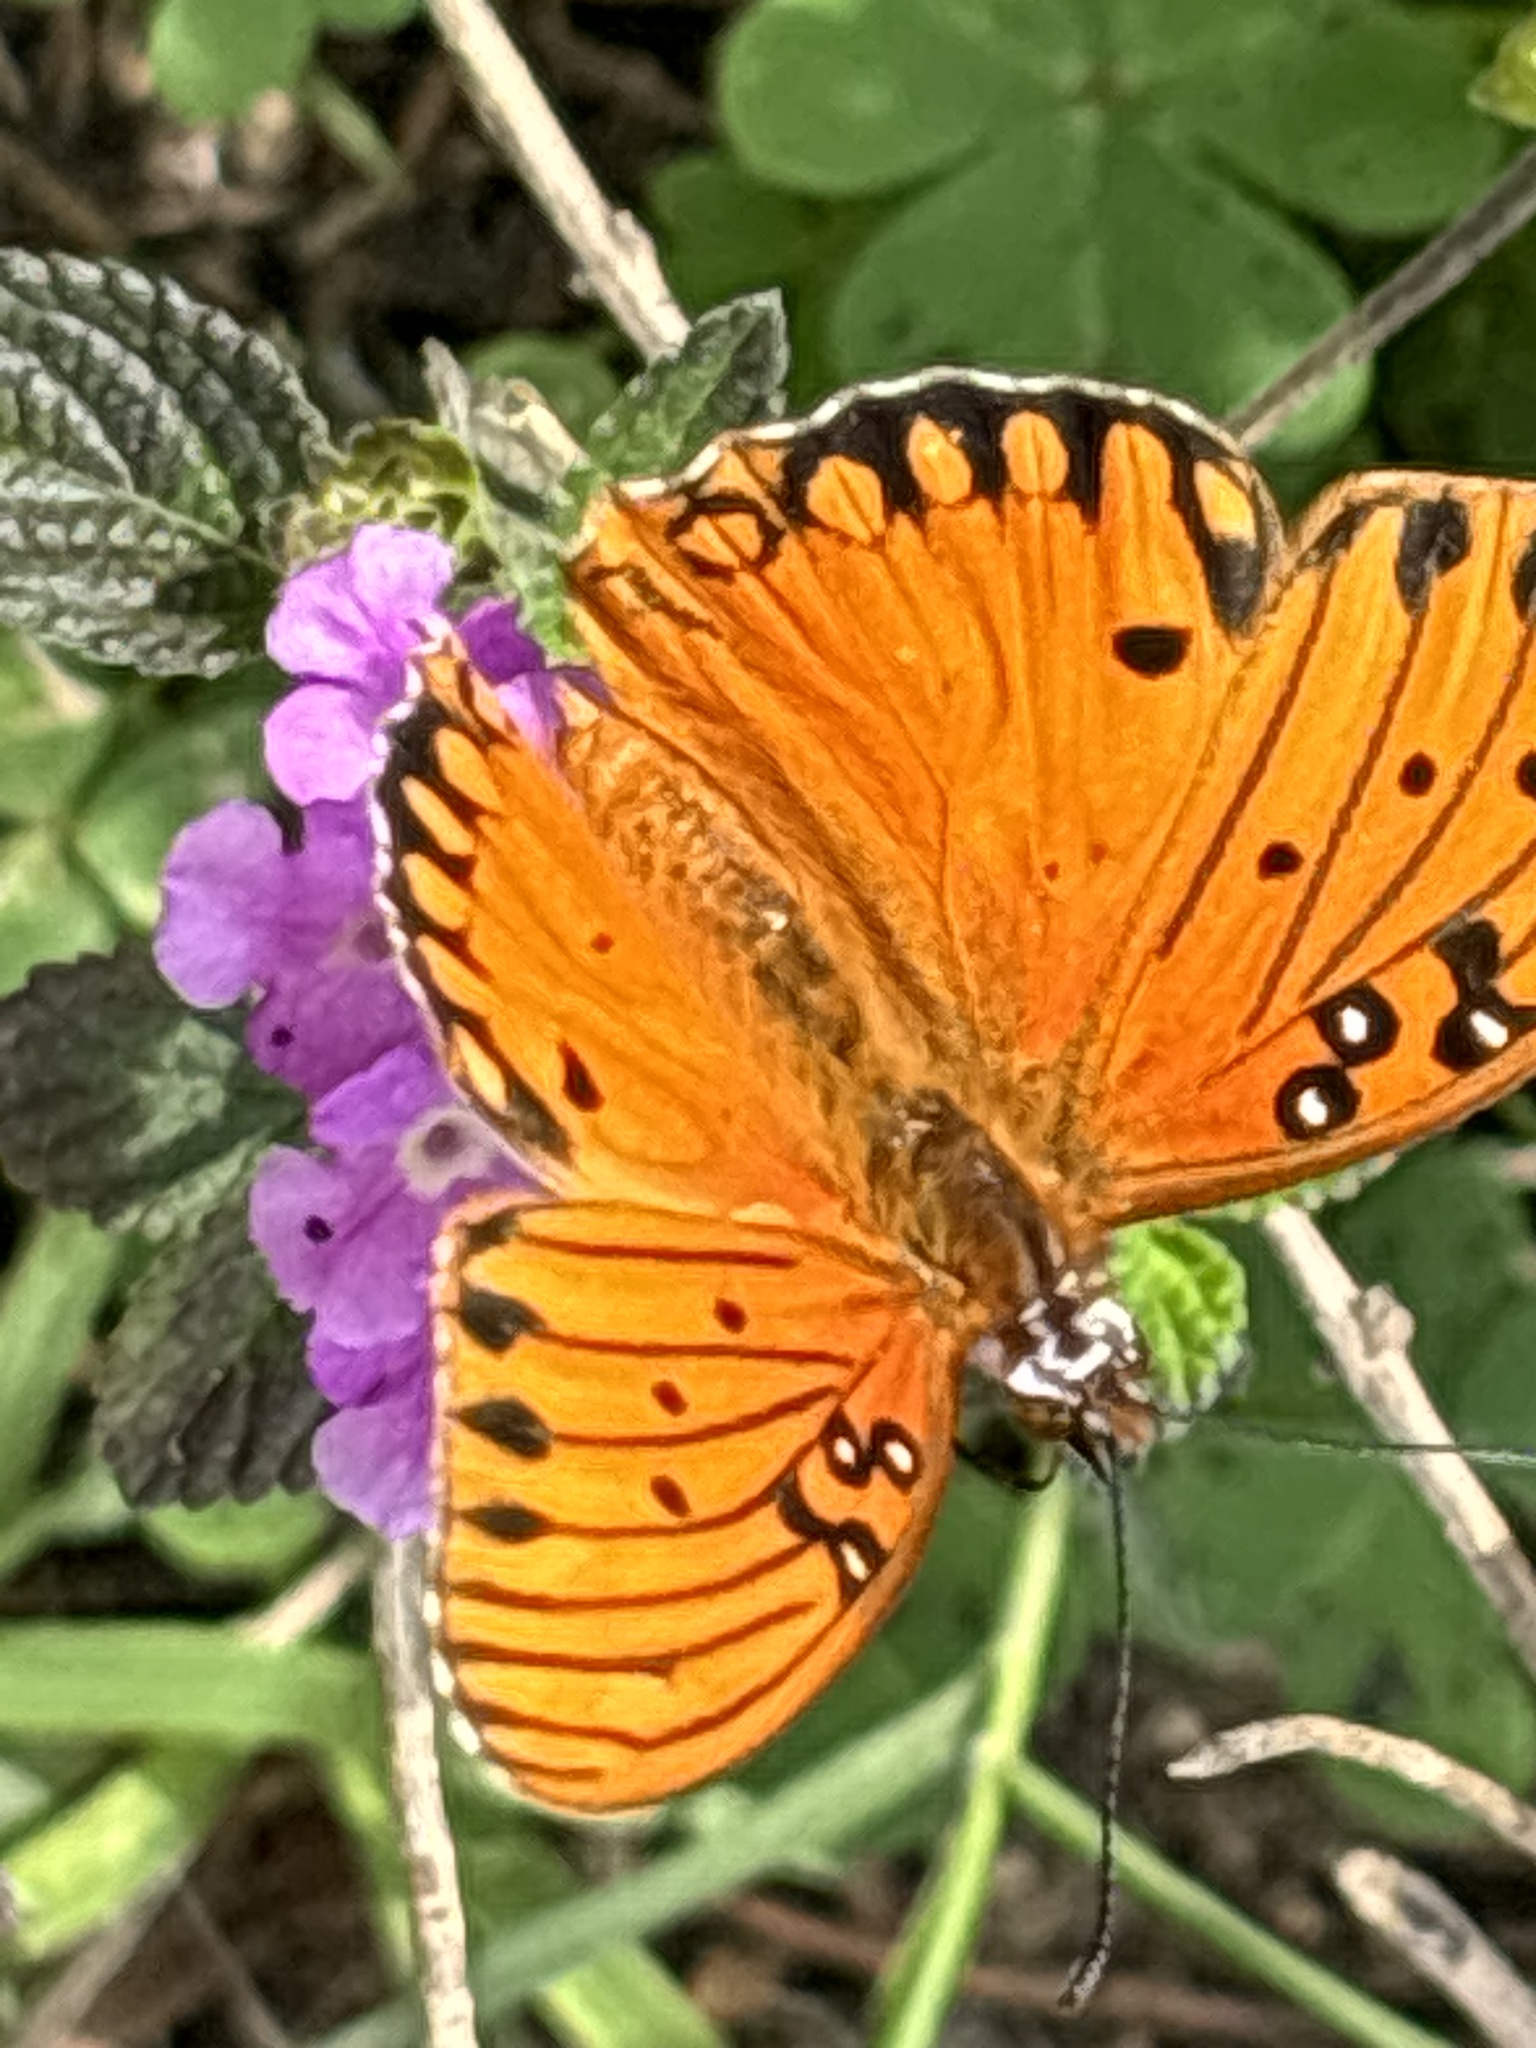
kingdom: Animalia
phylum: Arthropoda
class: Insecta
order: Lepidoptera
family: Nymphalidae
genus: Dione
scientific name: Dione vanillae
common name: Gulf fritillary
